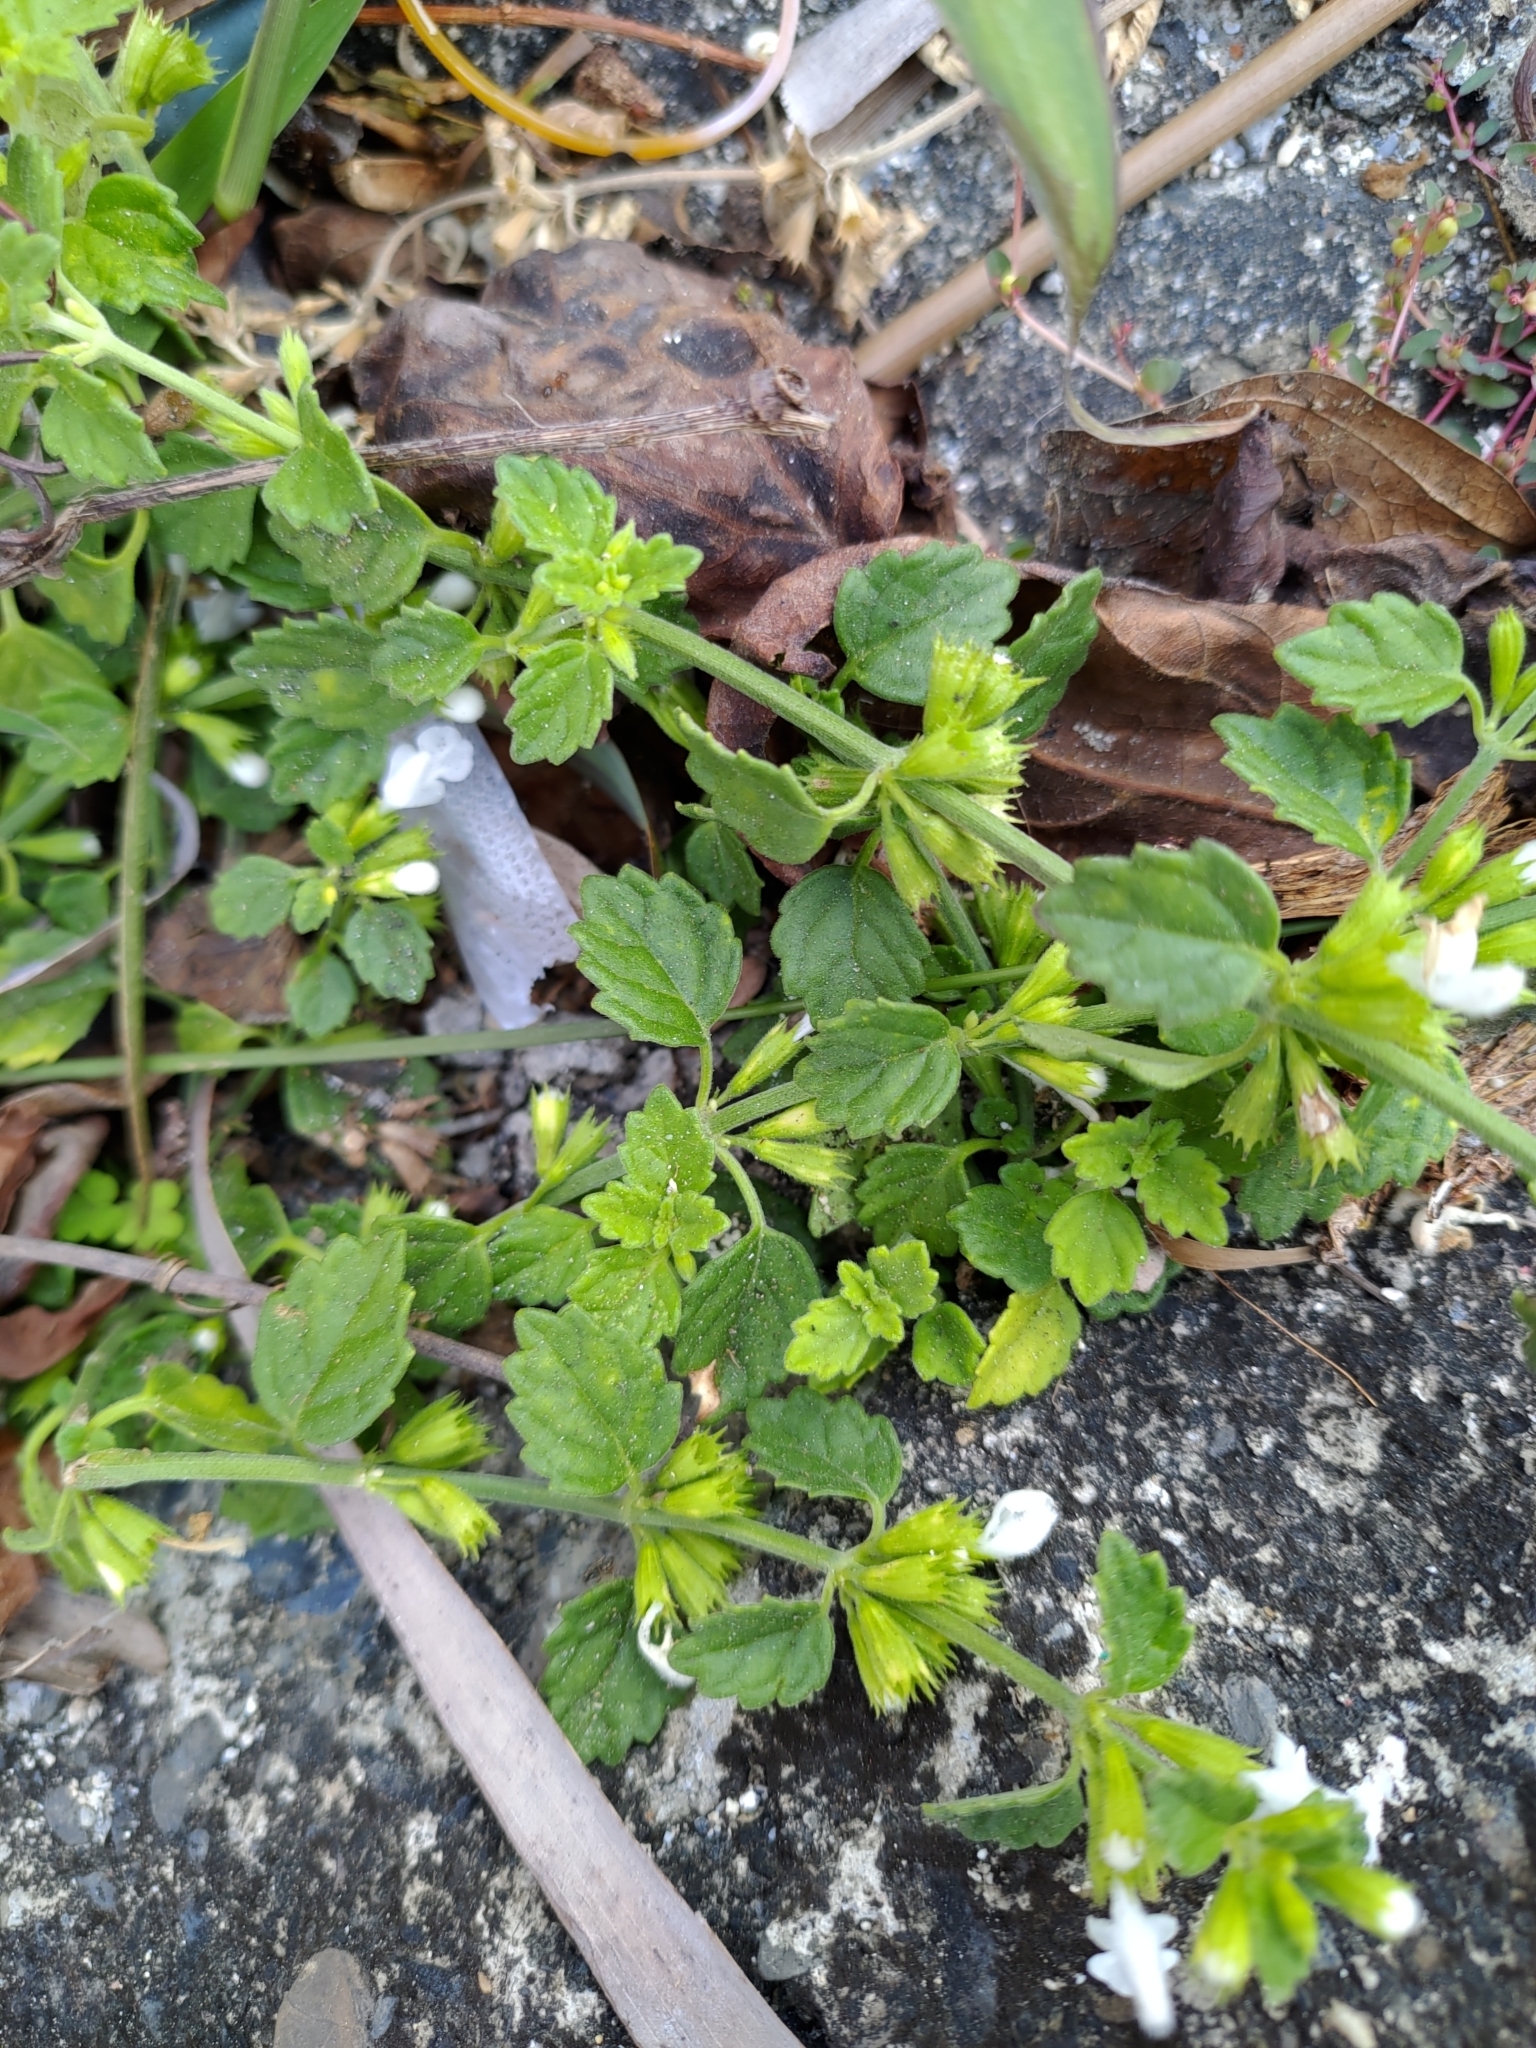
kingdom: Plantae
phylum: Tracheophyta
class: Magnoliopsida
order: Lamiales
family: Lamiaceae
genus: Leucas
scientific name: Leucas chinensis
